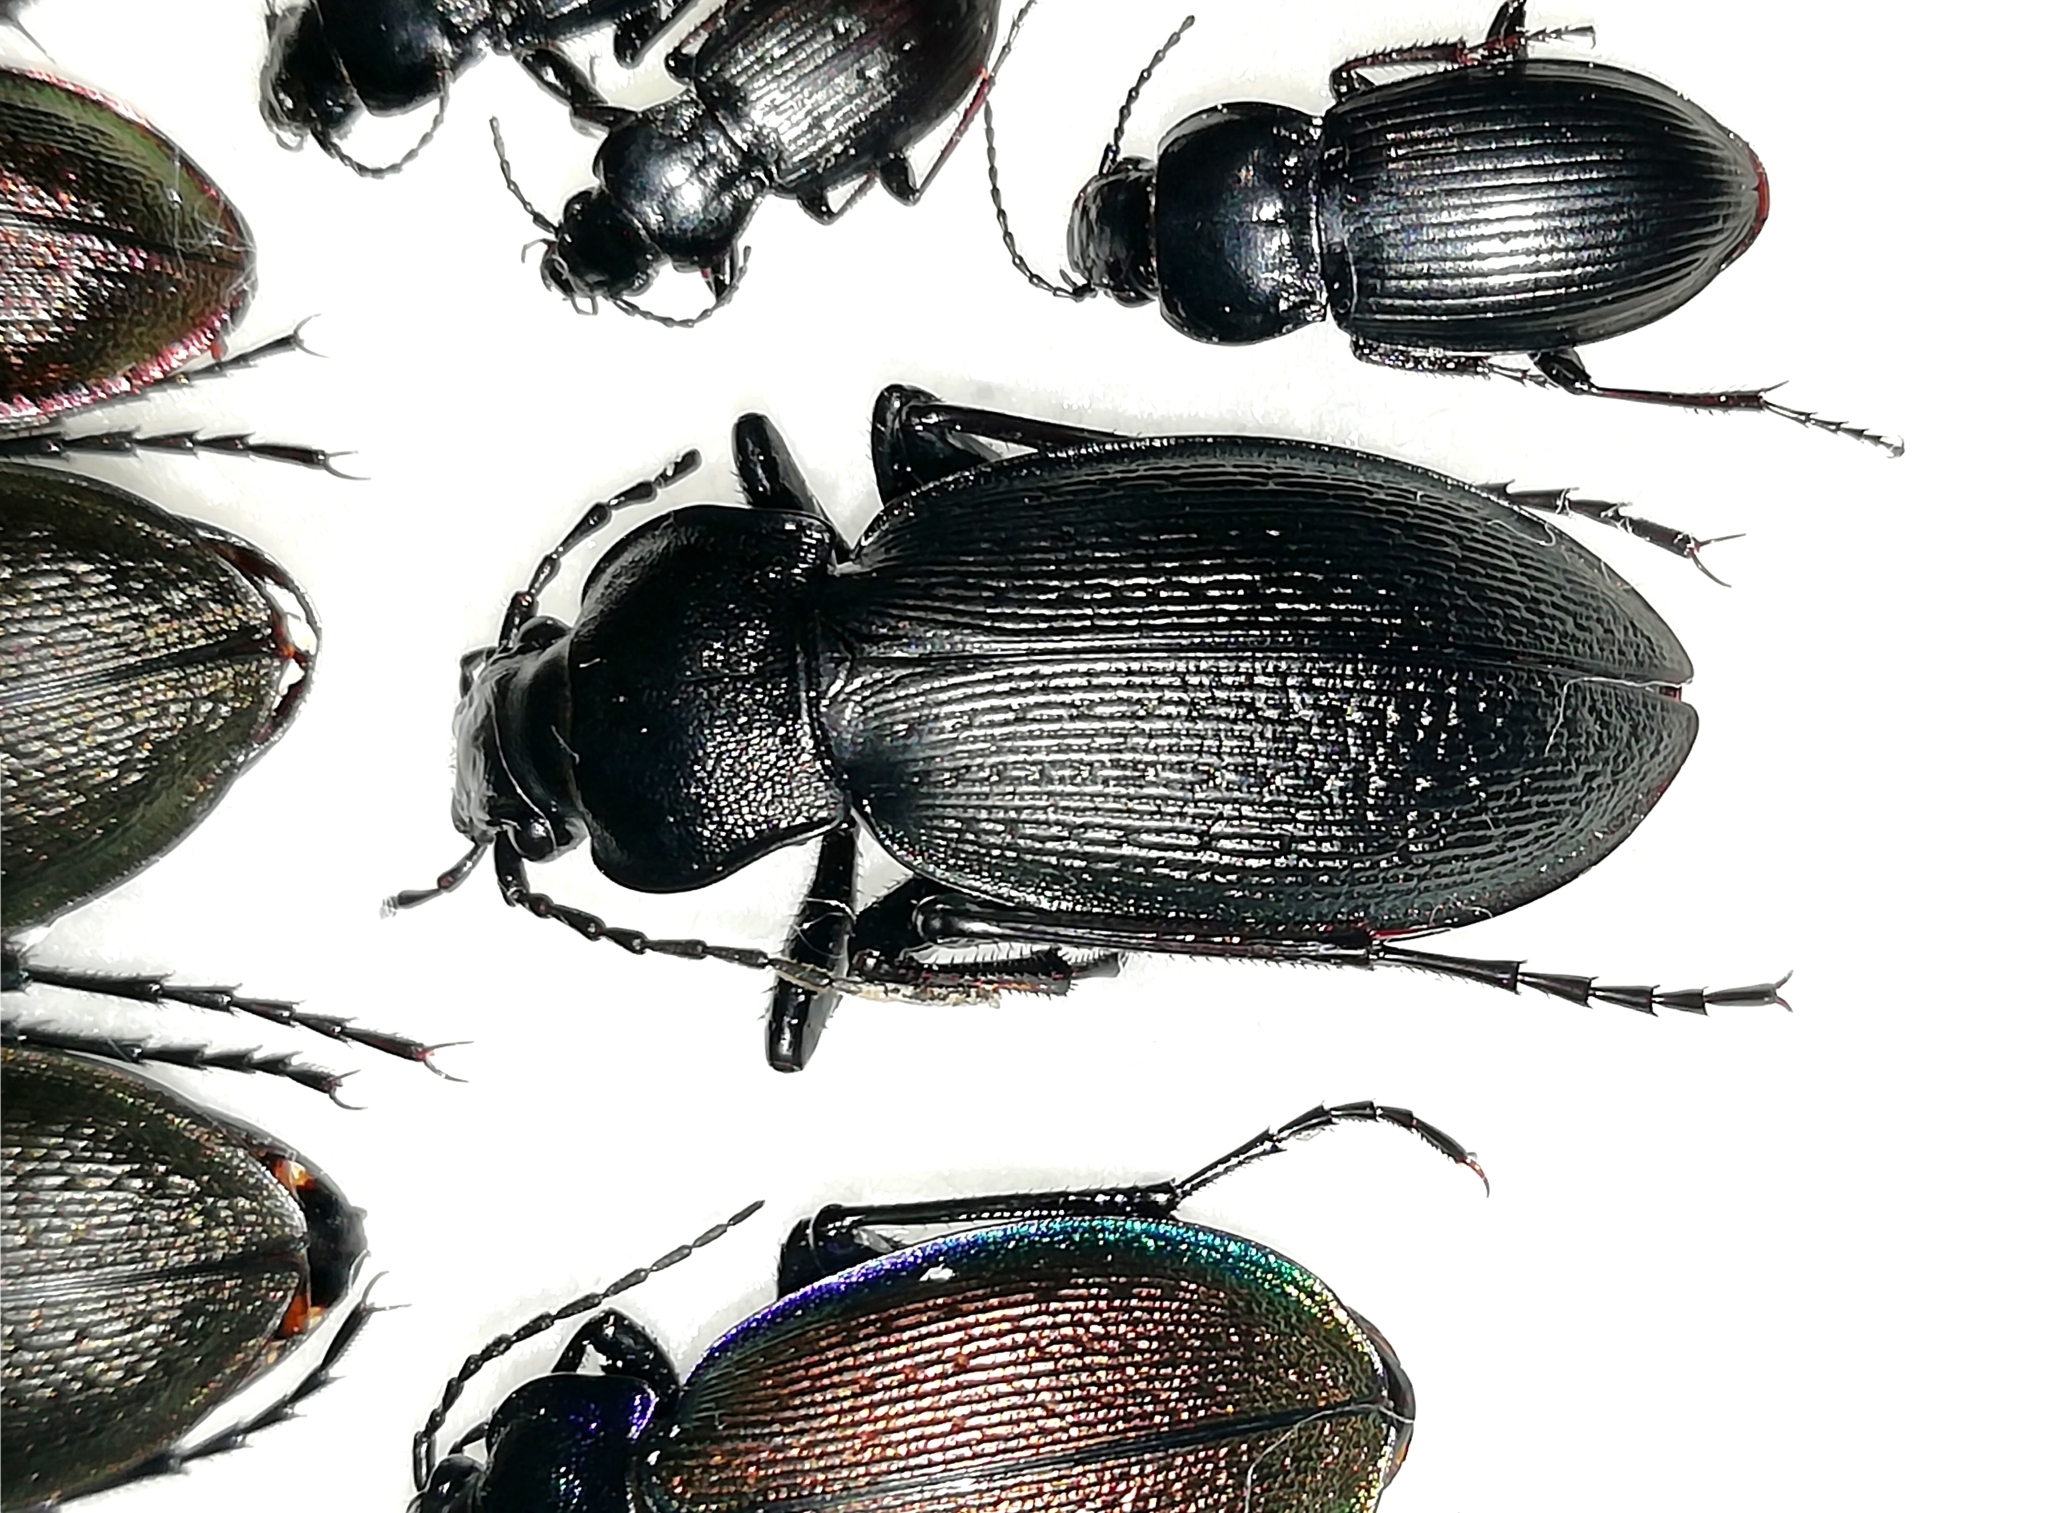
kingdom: Animalia
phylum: Arthropoda
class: Insecta
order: Coleoptera
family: Carabidae
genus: Carabus
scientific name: Carabus spasskianus
